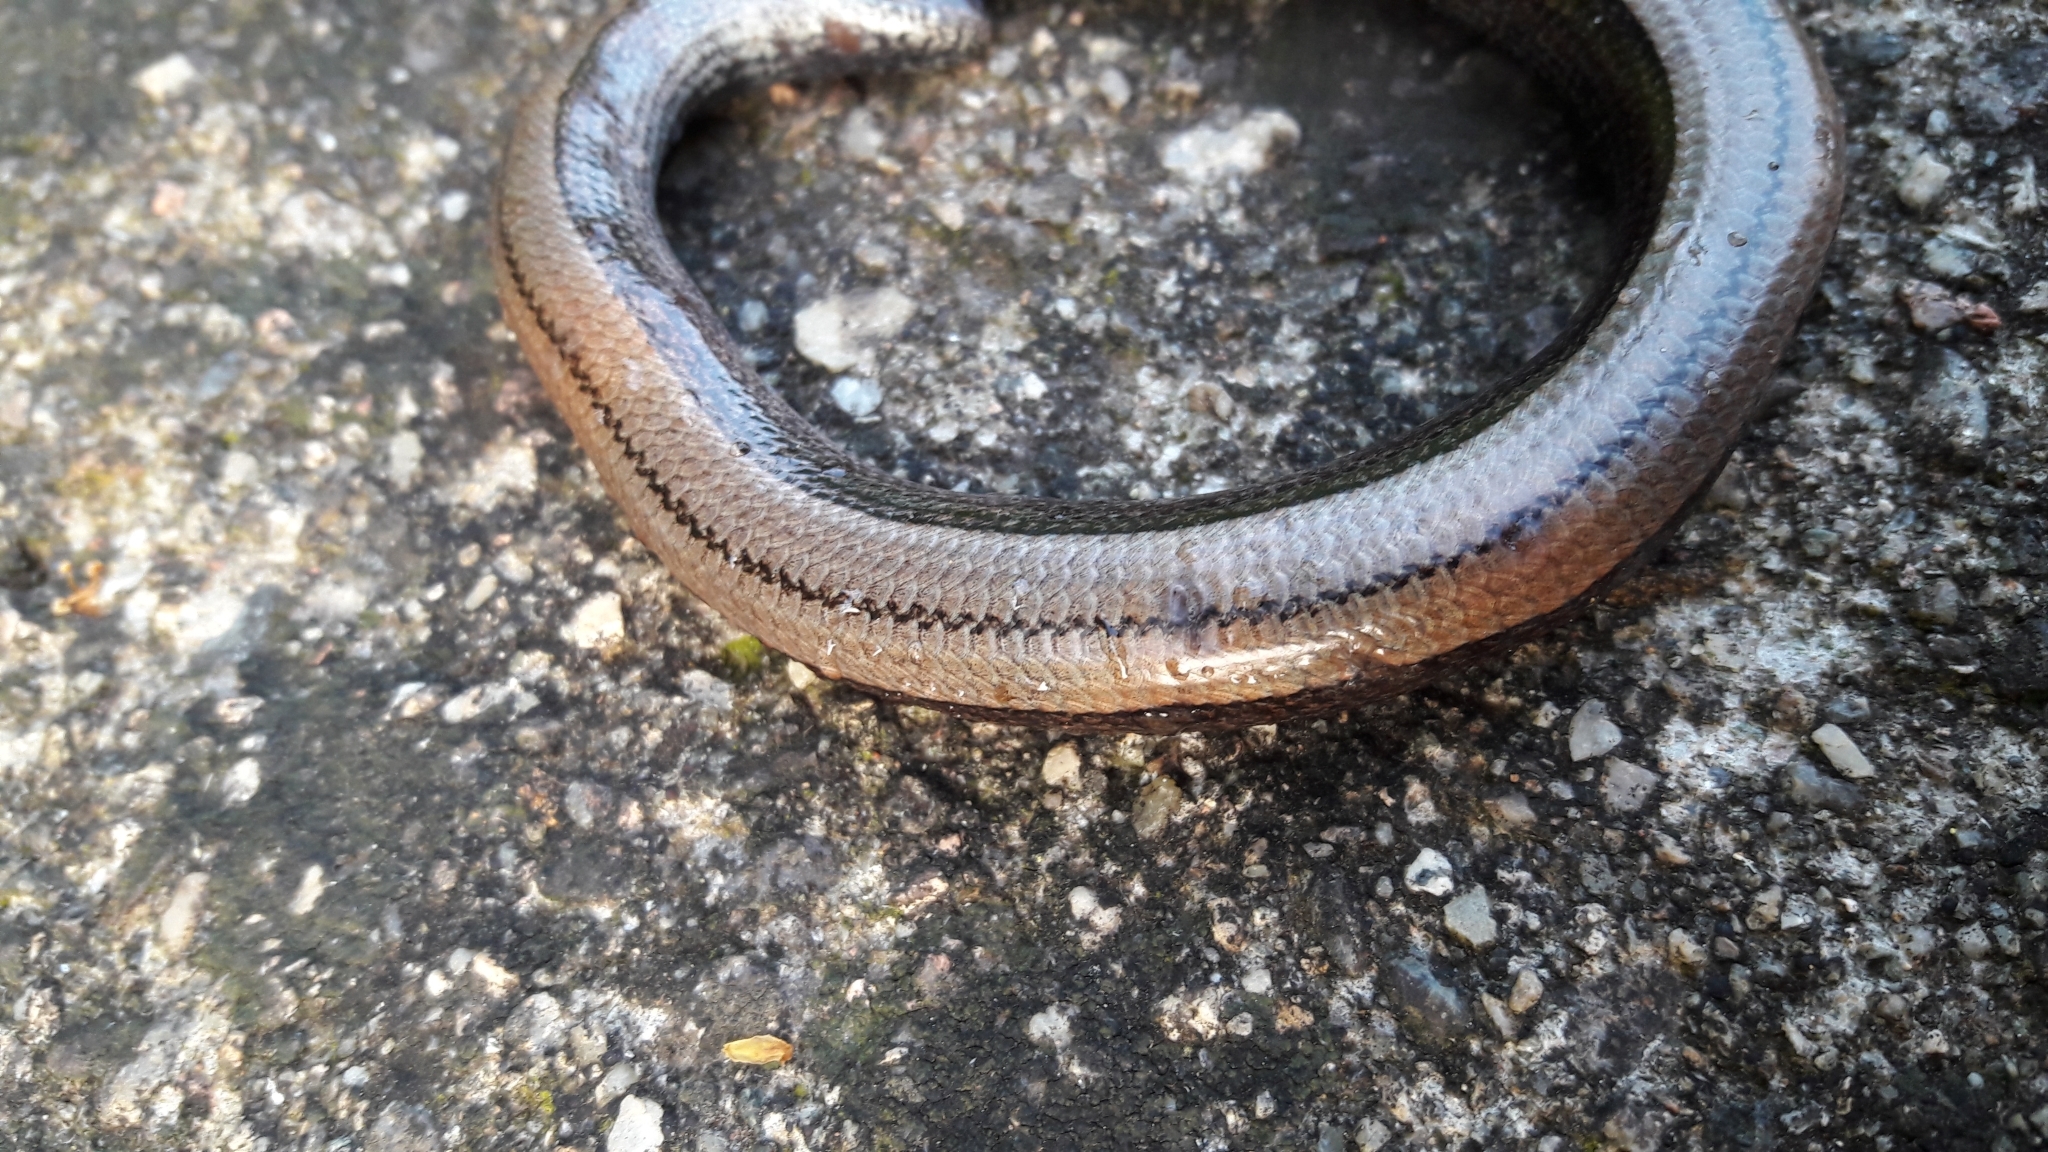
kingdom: Animalia
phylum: Chordata
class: Squamata
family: Anguidae
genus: Anguis
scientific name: Anguis veronensis
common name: Italian slow worm
